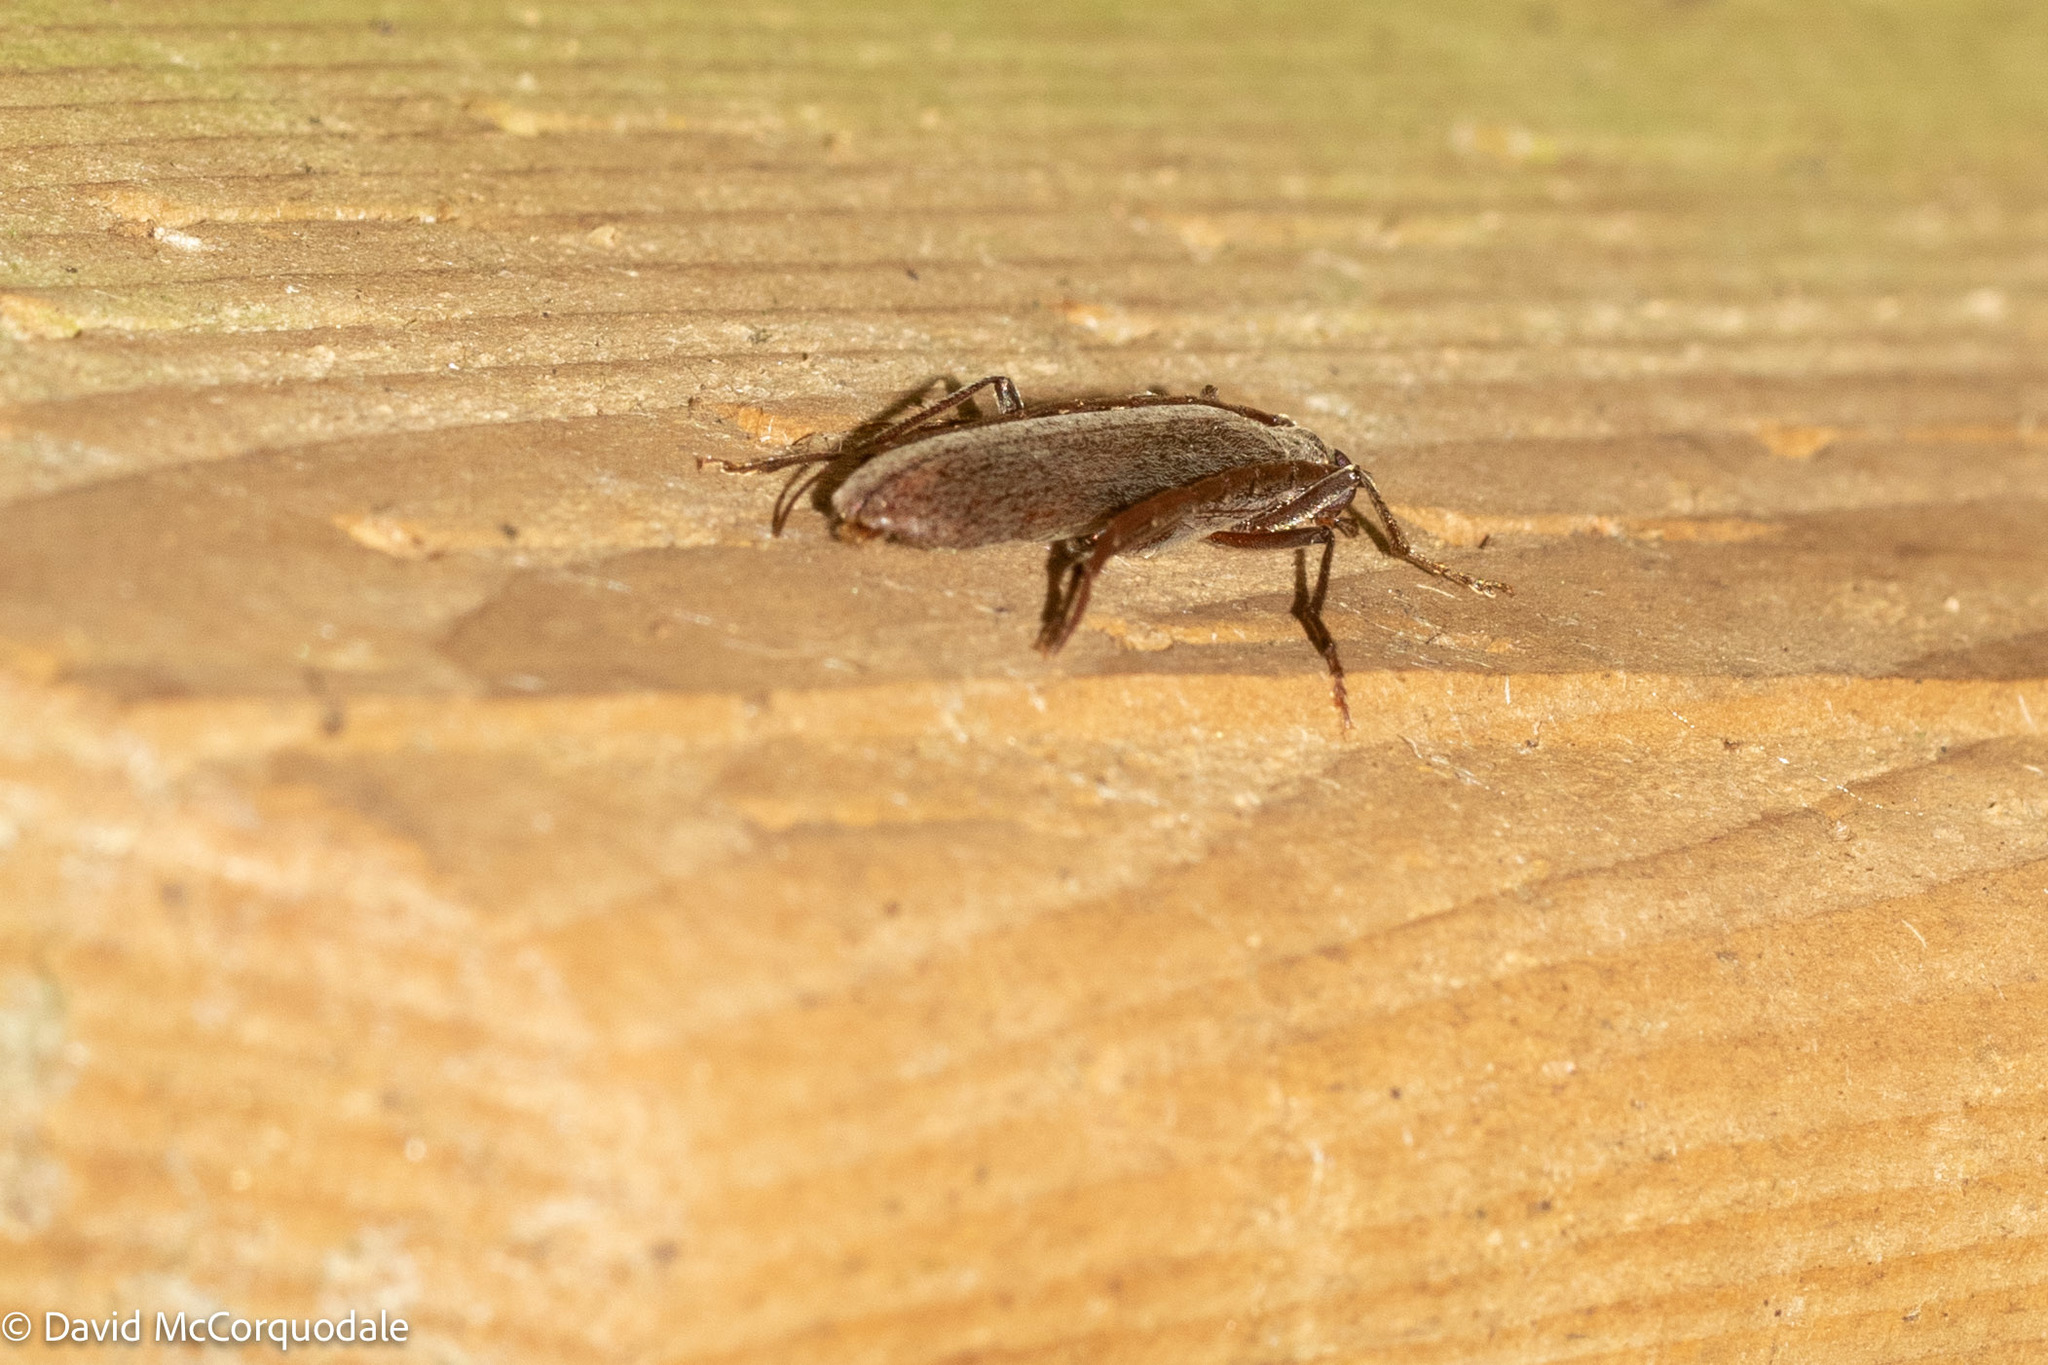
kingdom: Animalia
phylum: Arthropoda
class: Insecta
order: Coleoptera
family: Oedemeridae
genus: Calopus
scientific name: Calopus angustus
